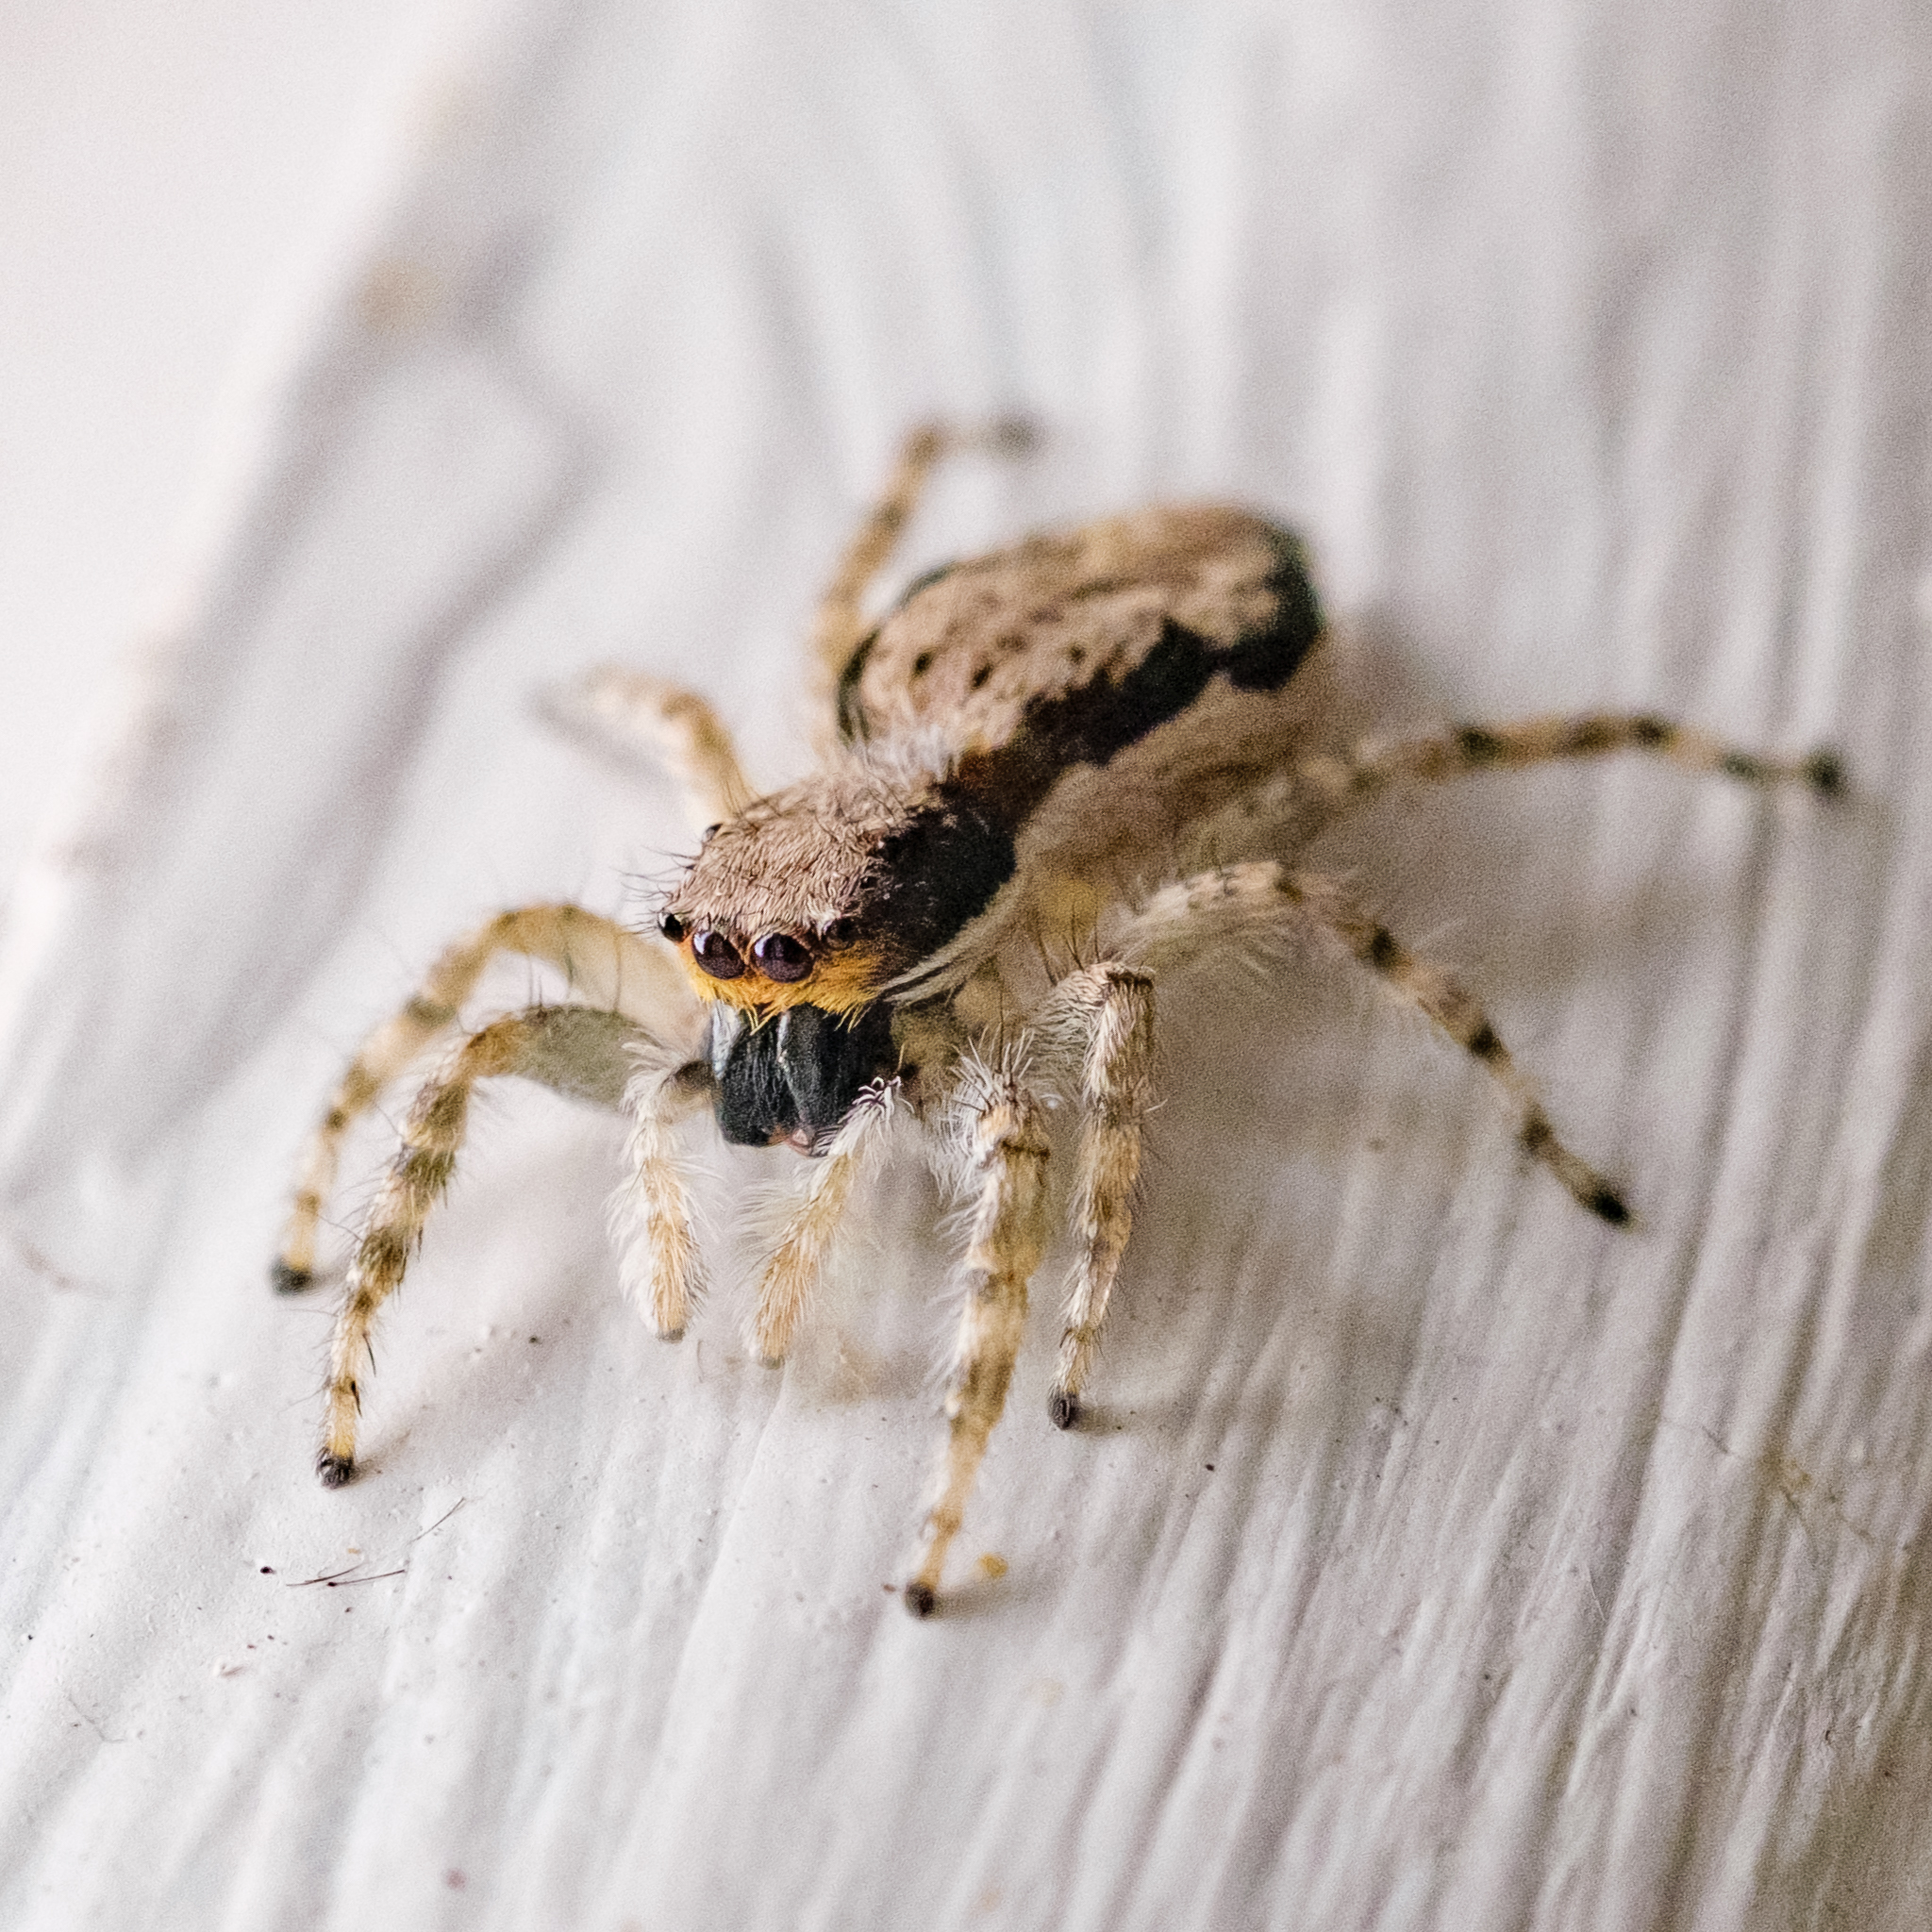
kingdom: Animalia
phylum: Arthropoda
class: Arachnida
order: Araneae
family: Salticidae
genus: Menemerus
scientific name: Menemerus bivittatus
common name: Gray wall jumper
